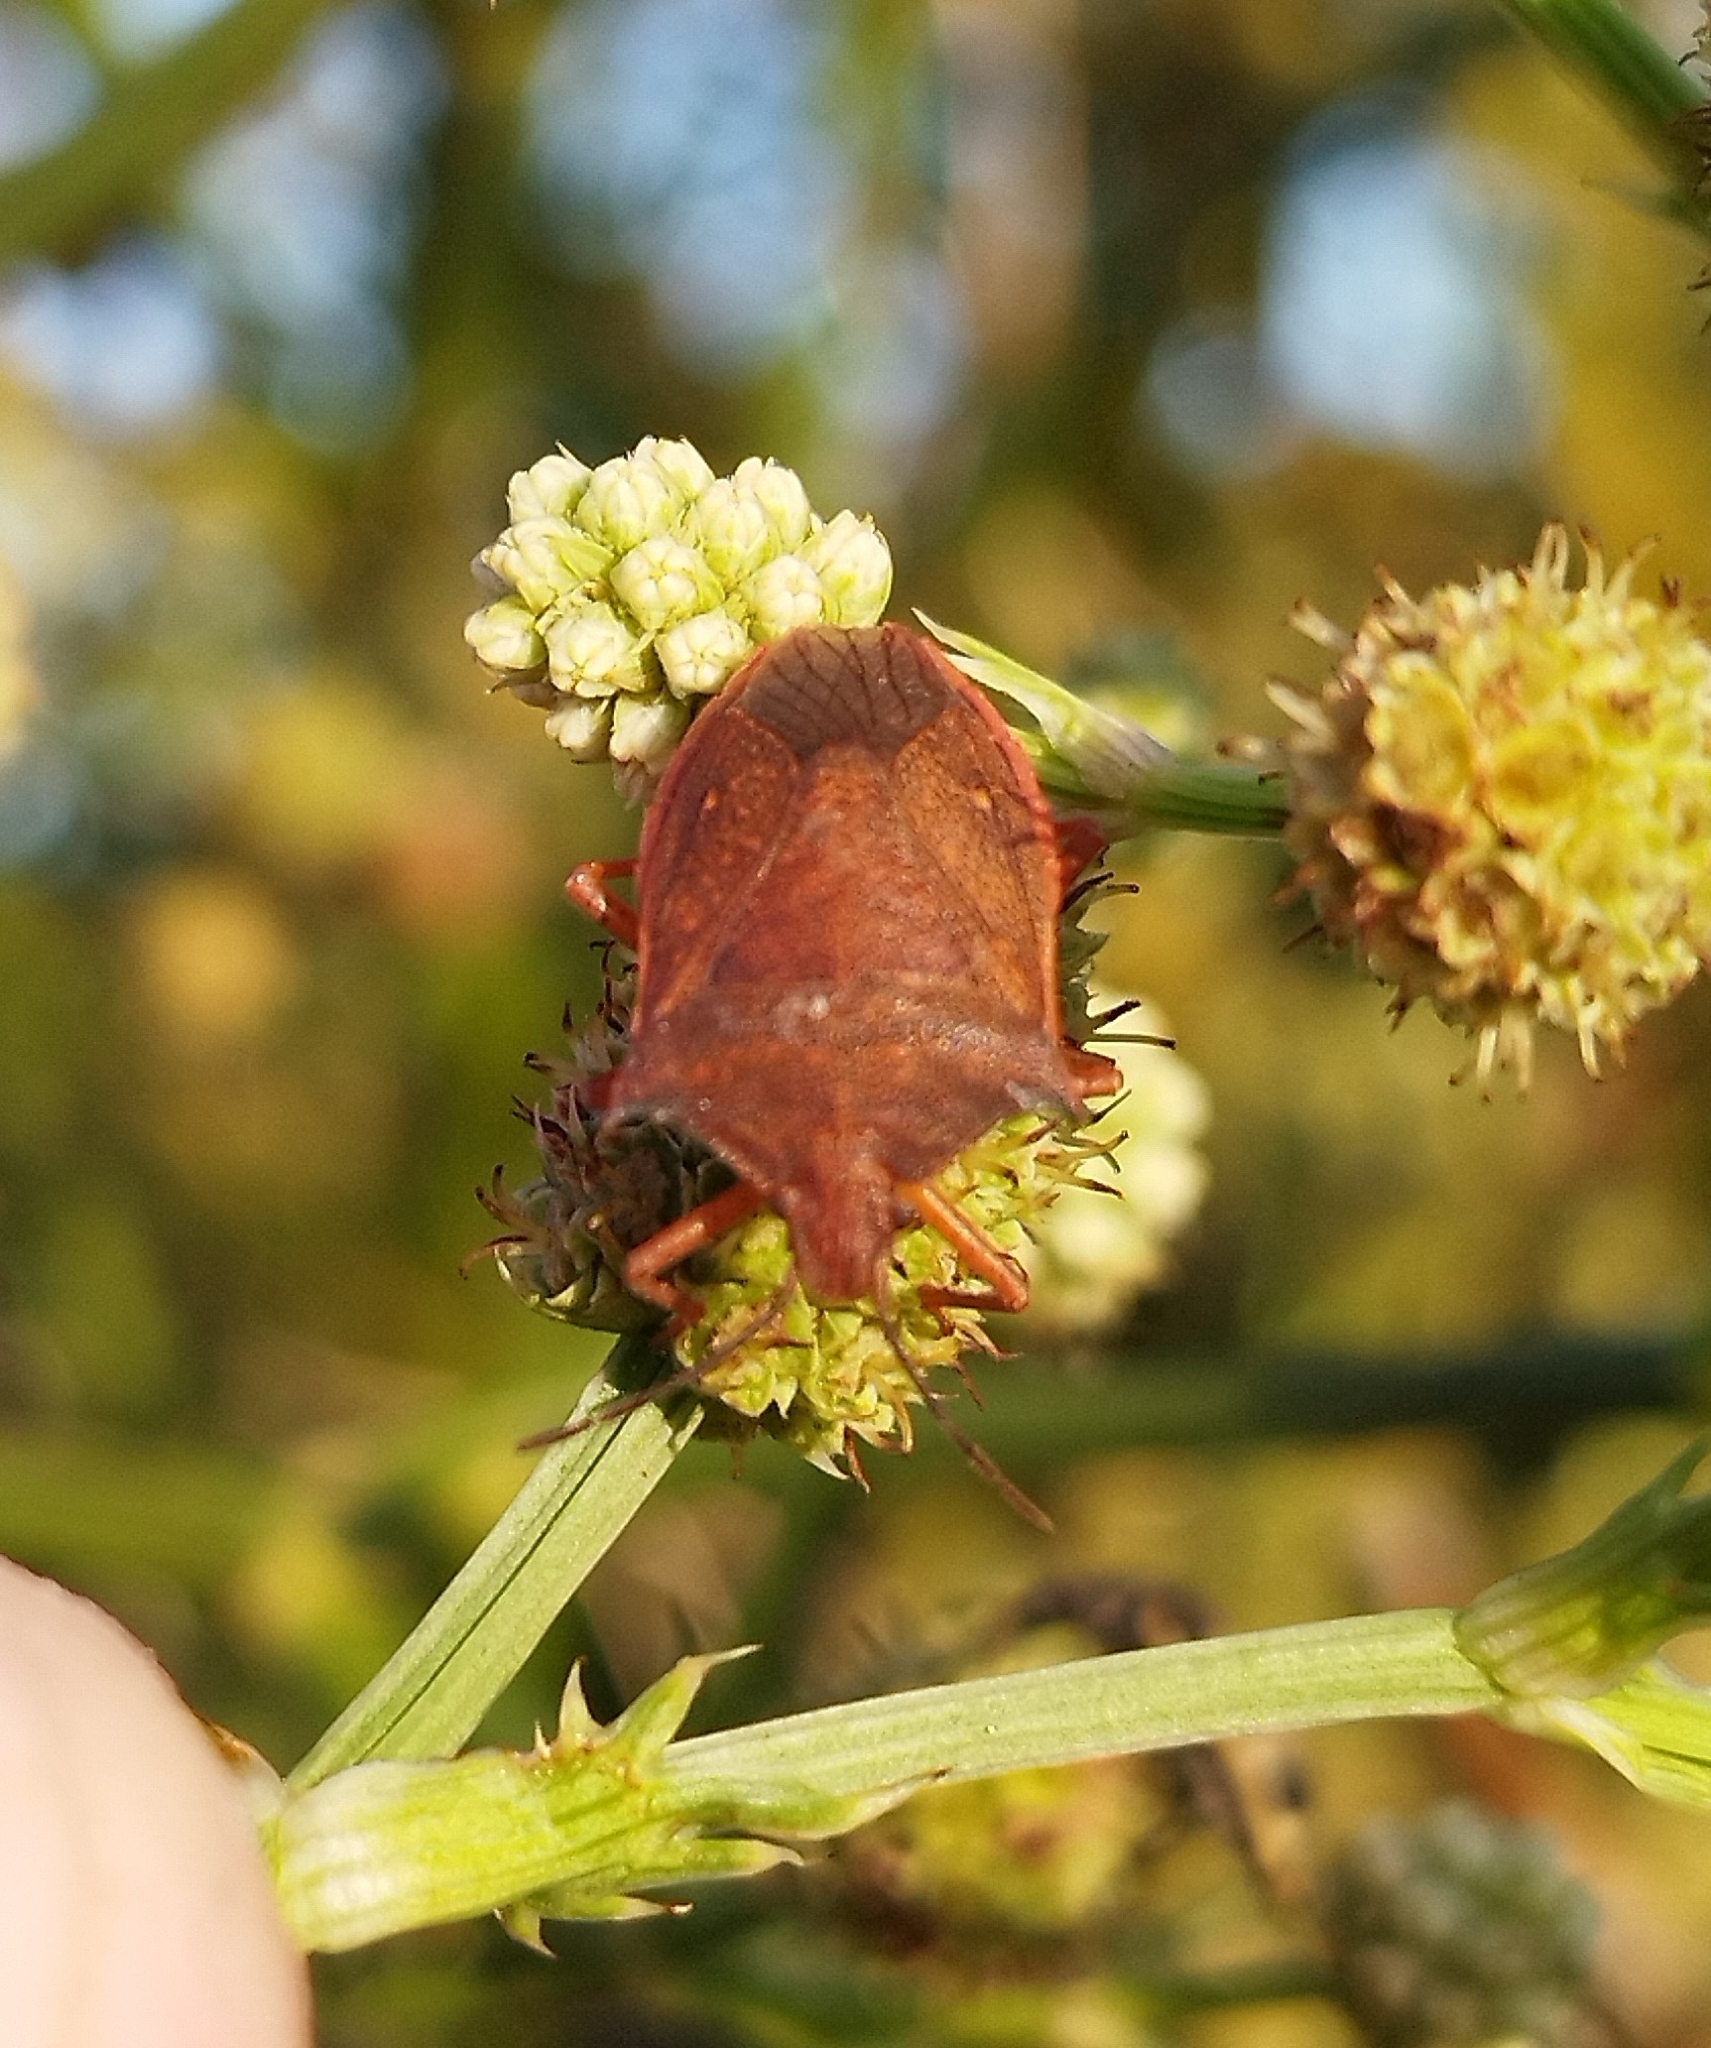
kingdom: Animalia
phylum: Arthropoda
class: Insecta
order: Hemiptera
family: Pentatomidae
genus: Euschistus
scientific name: Euschistus
